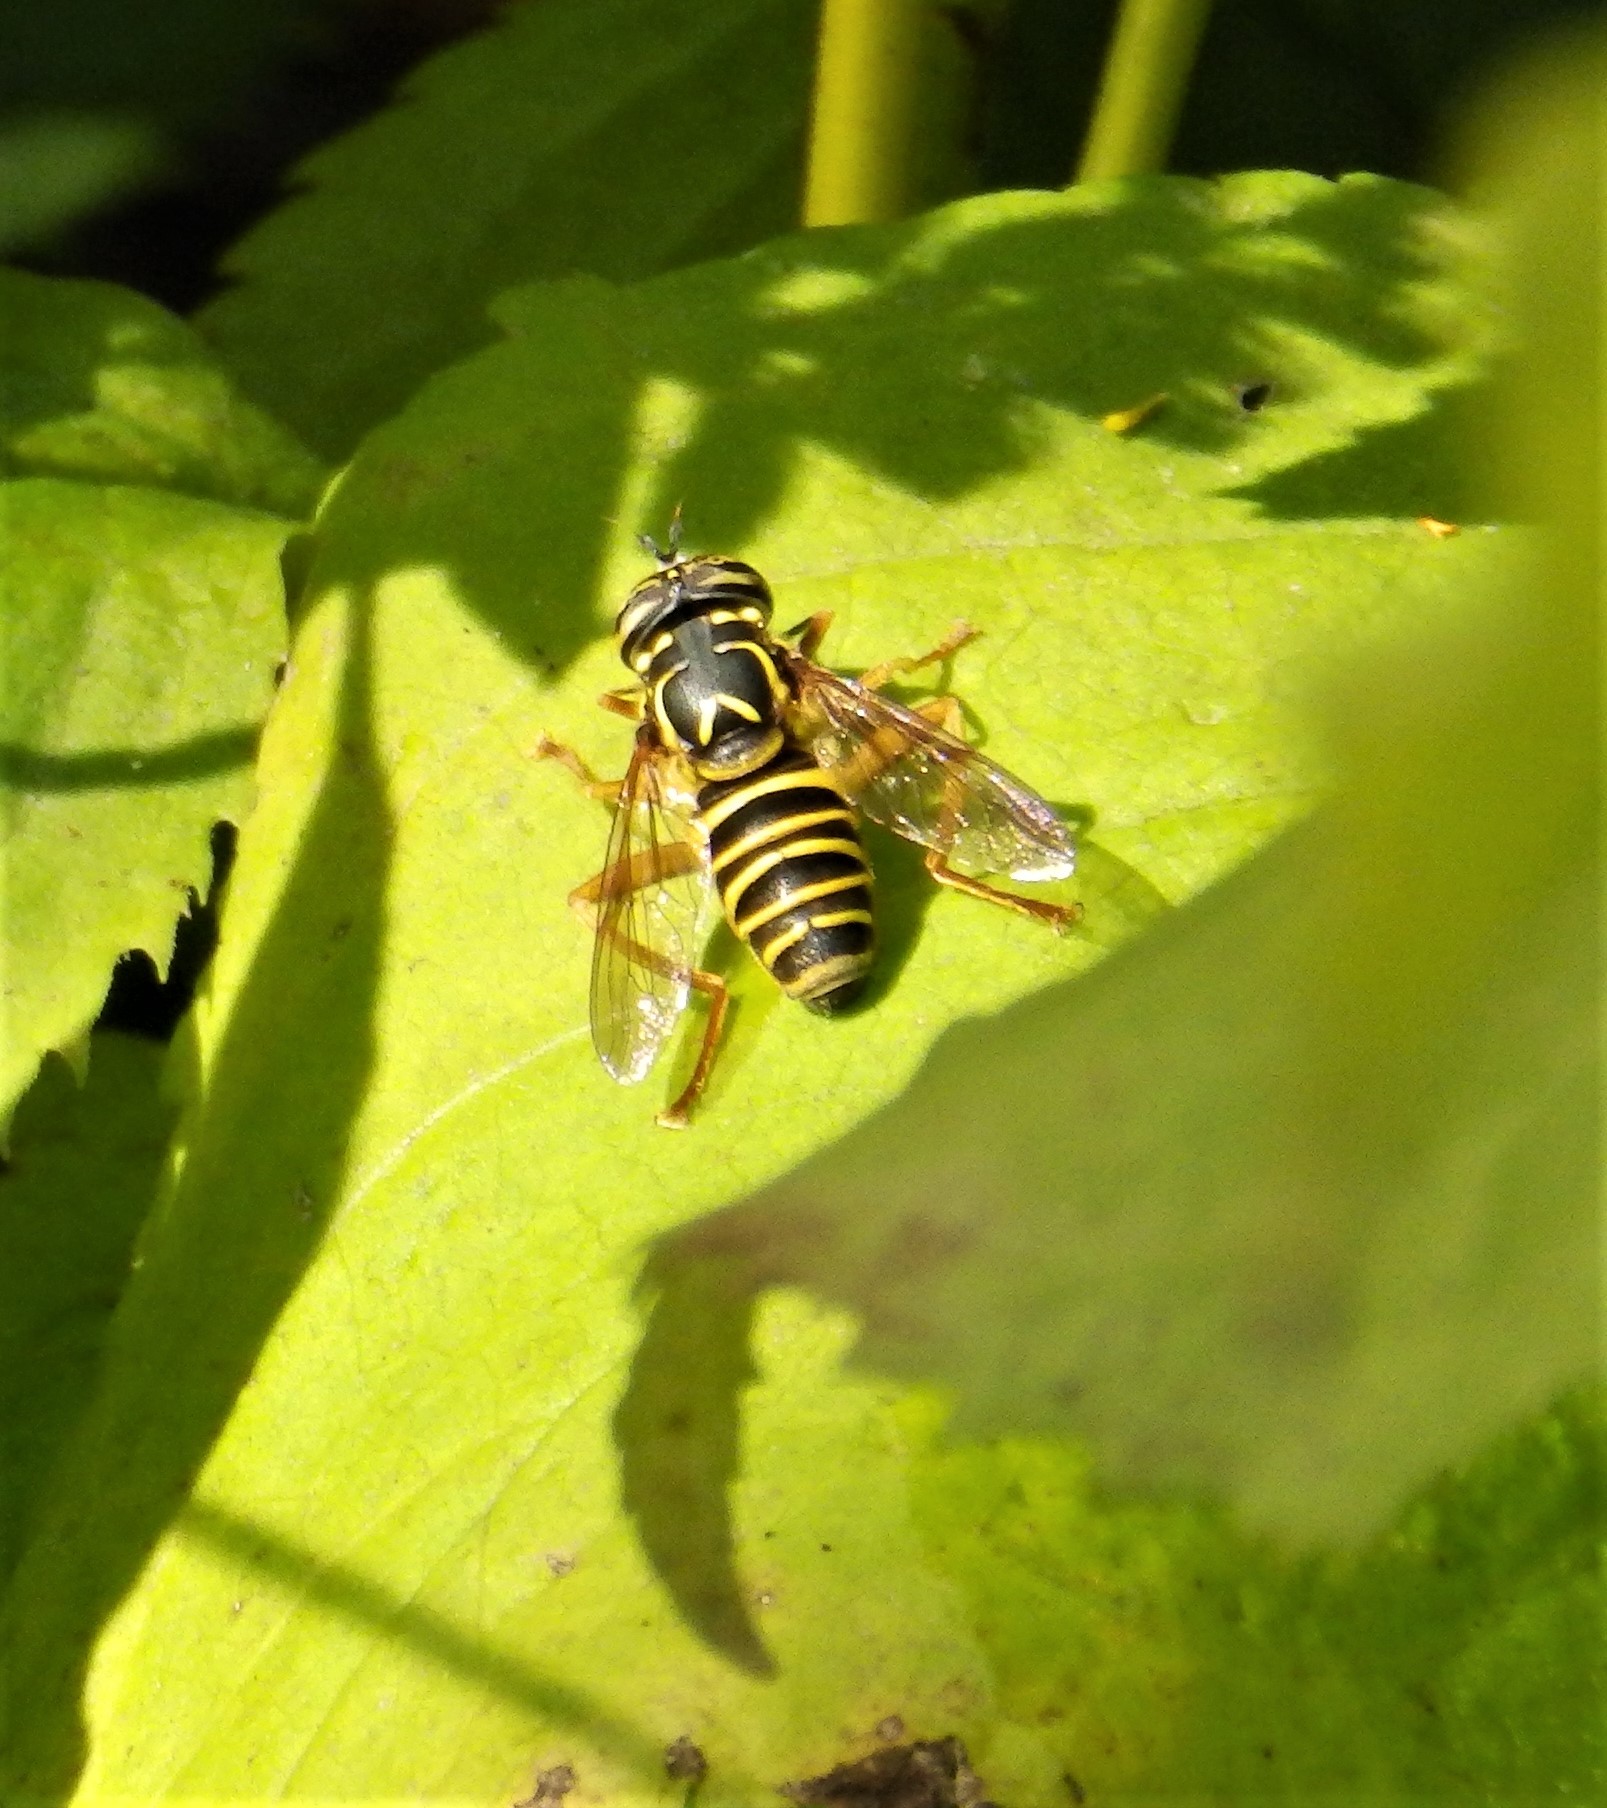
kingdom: Animalia
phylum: Arthropoda
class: Insecta
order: Diptera
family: Syrphidae
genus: Spilomyia
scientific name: Spilomyia longicornis
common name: Eastern hornet fly
